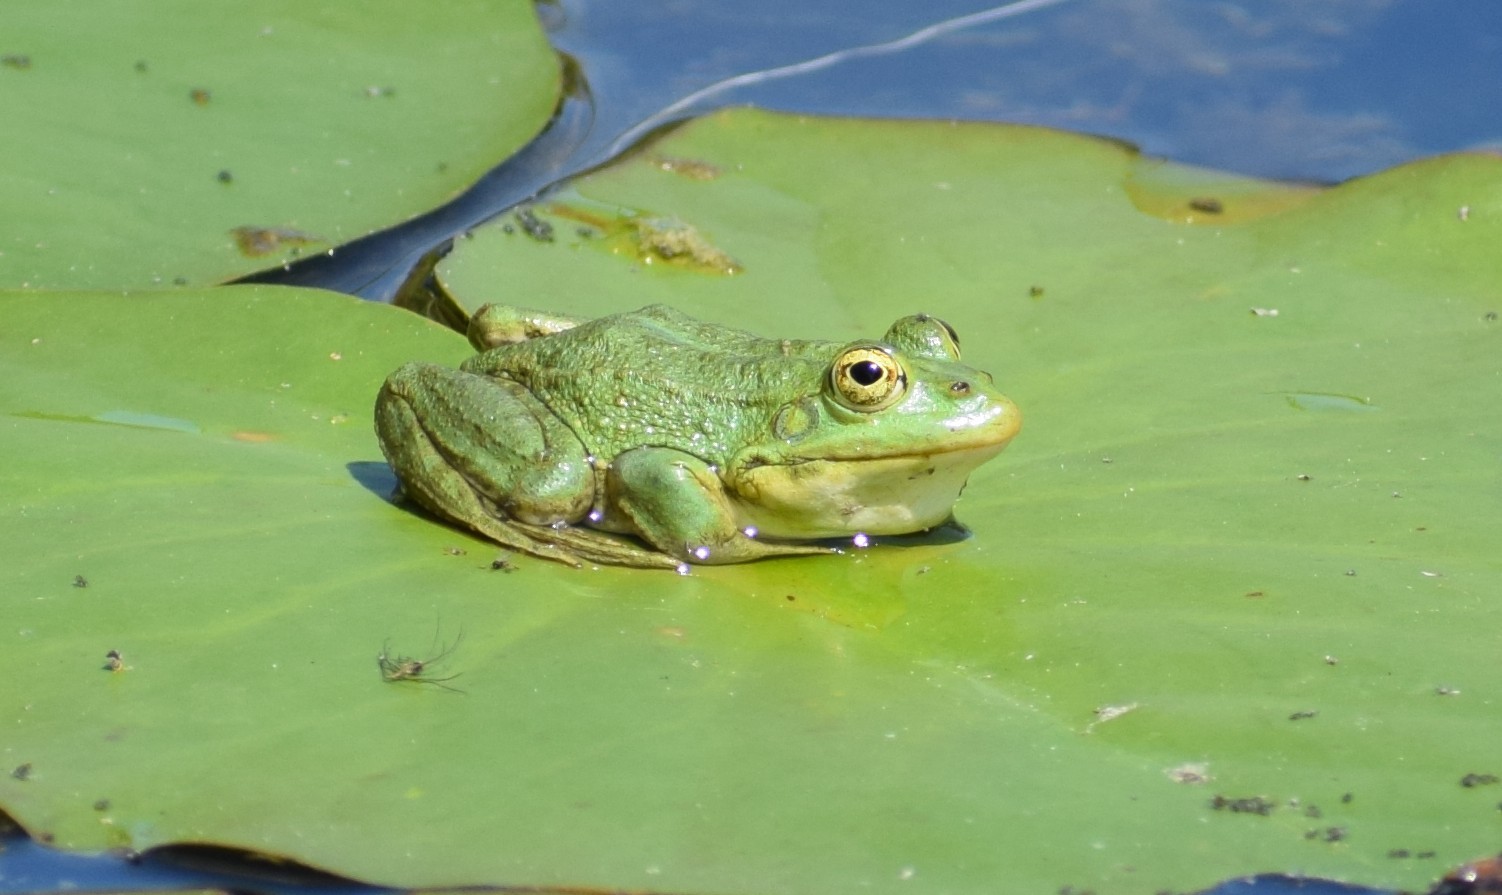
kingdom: Animalia
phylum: Chordata
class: Amphibia
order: Anura
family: Ranidae
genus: Pelophylax
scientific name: Pelophylax
